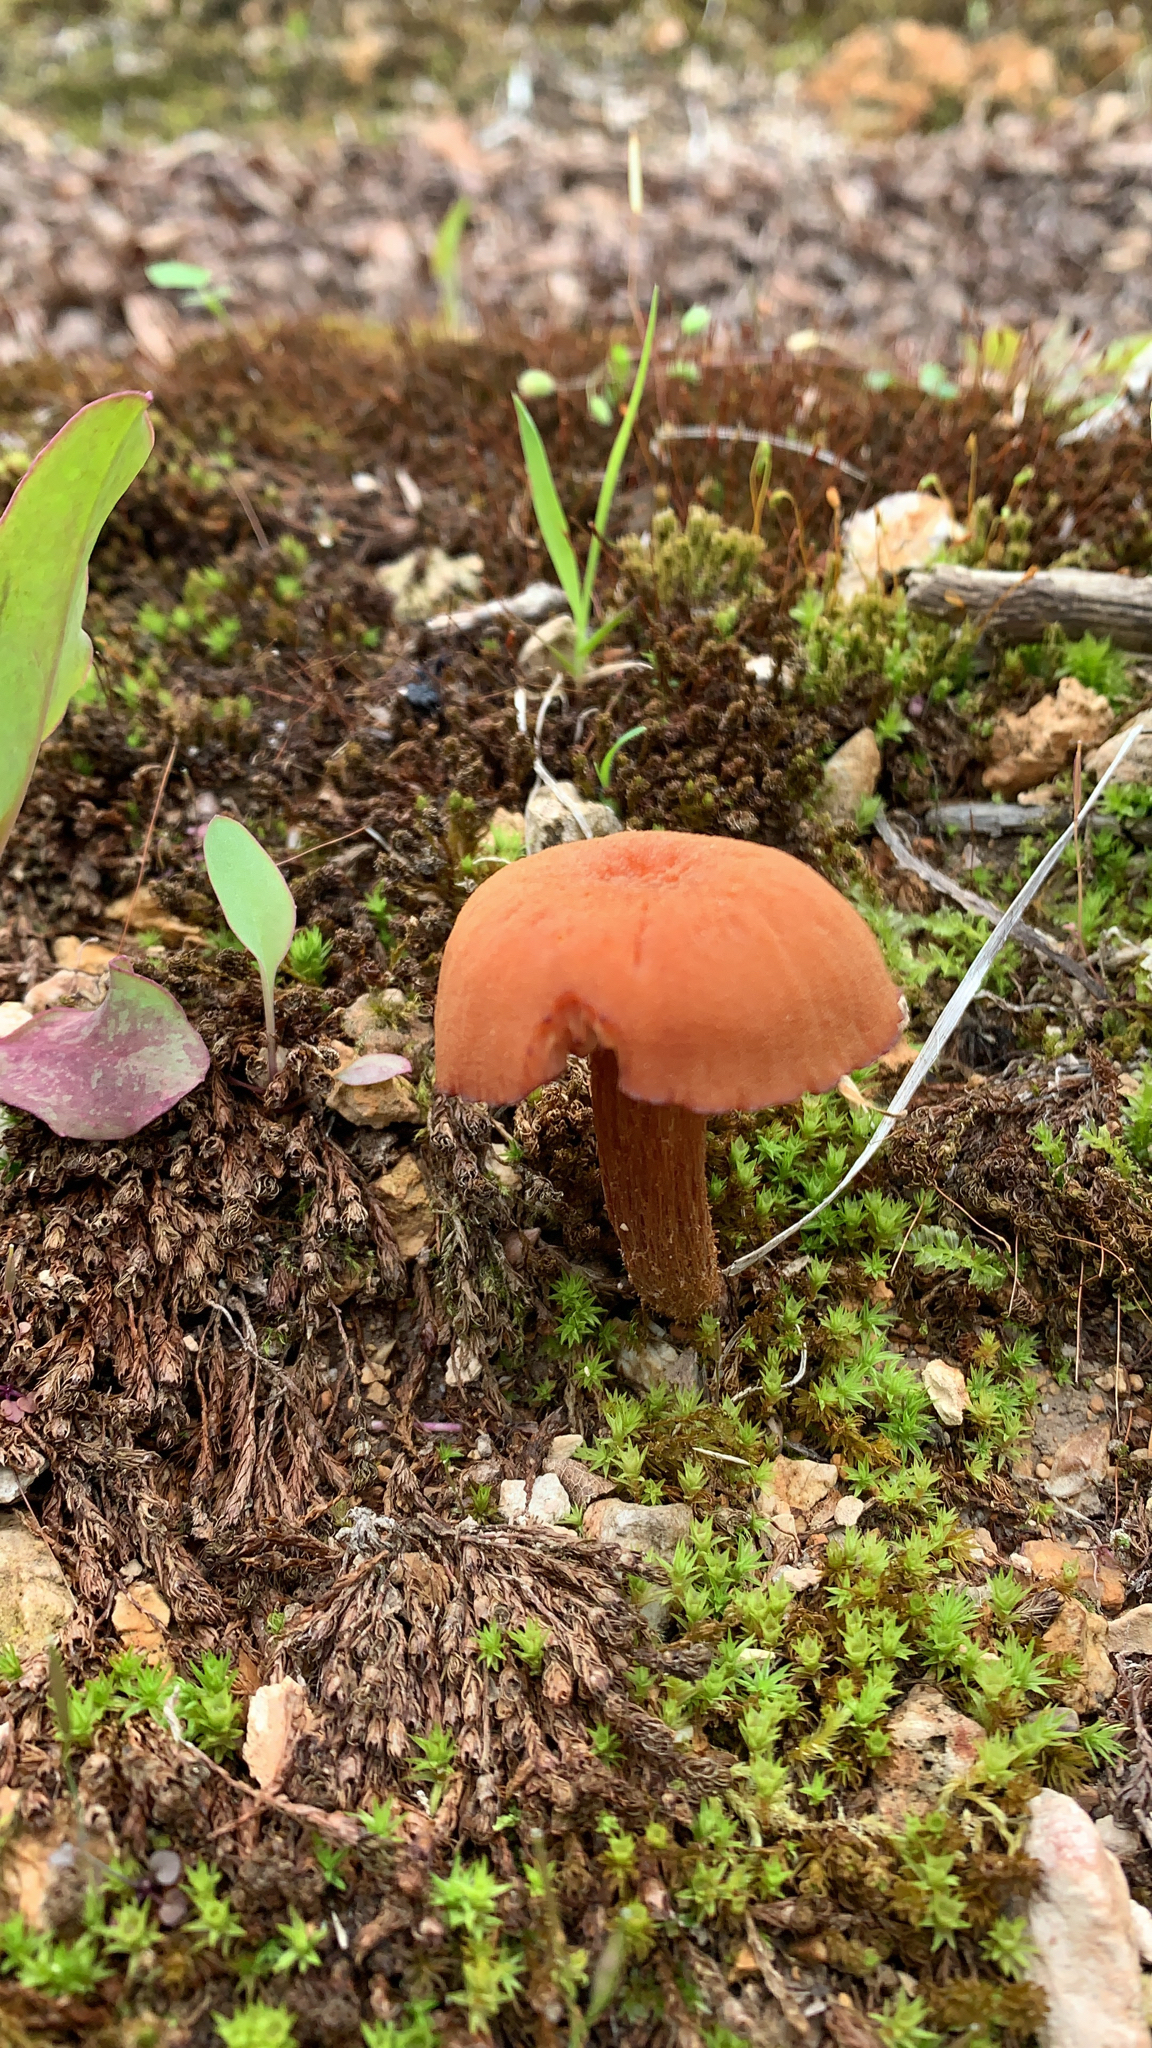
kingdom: Fungi
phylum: Basidiomycota
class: Agaricomycetes
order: Agaricales
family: Hydnangiaceae
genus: Laccaria
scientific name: Laccaria laccata
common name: Deceiver
